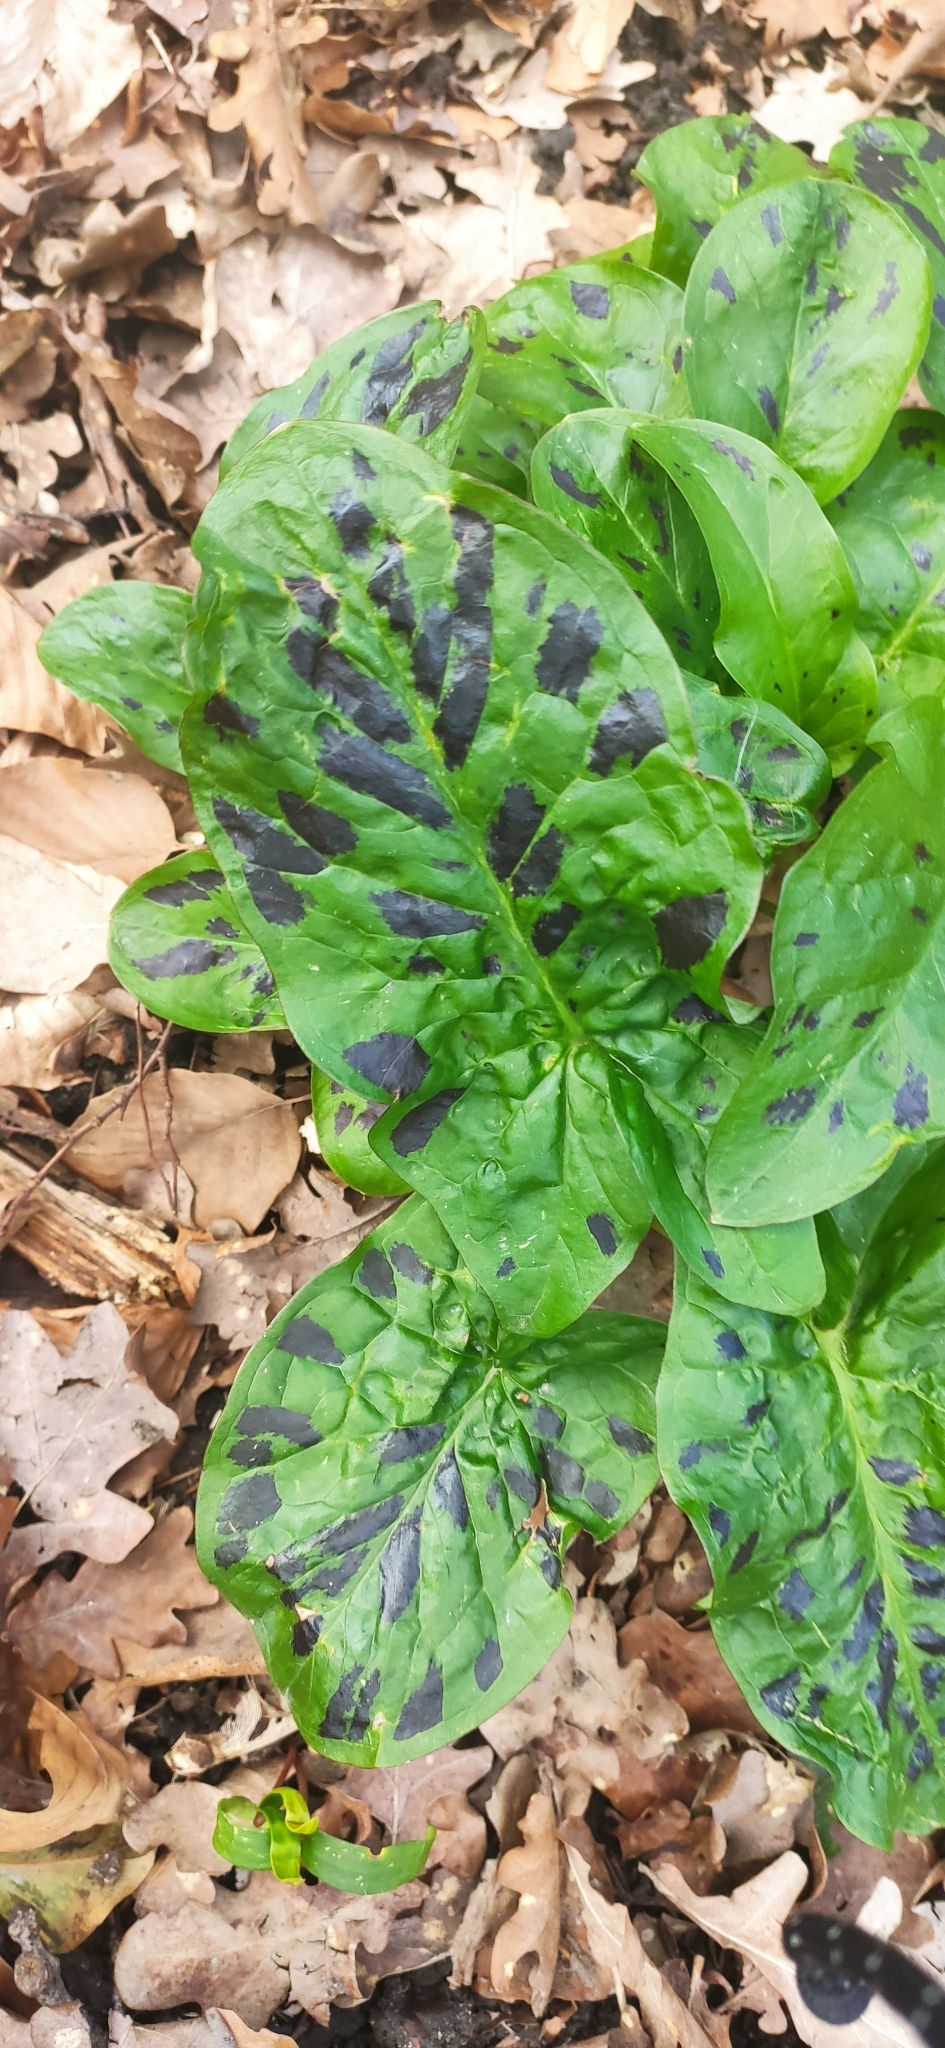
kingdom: Plantae
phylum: Tracheophyta
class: Liliopsida
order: Alismatales
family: Araceae
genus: Arum
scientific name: Arum maculatum
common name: Lords-and-ladies
